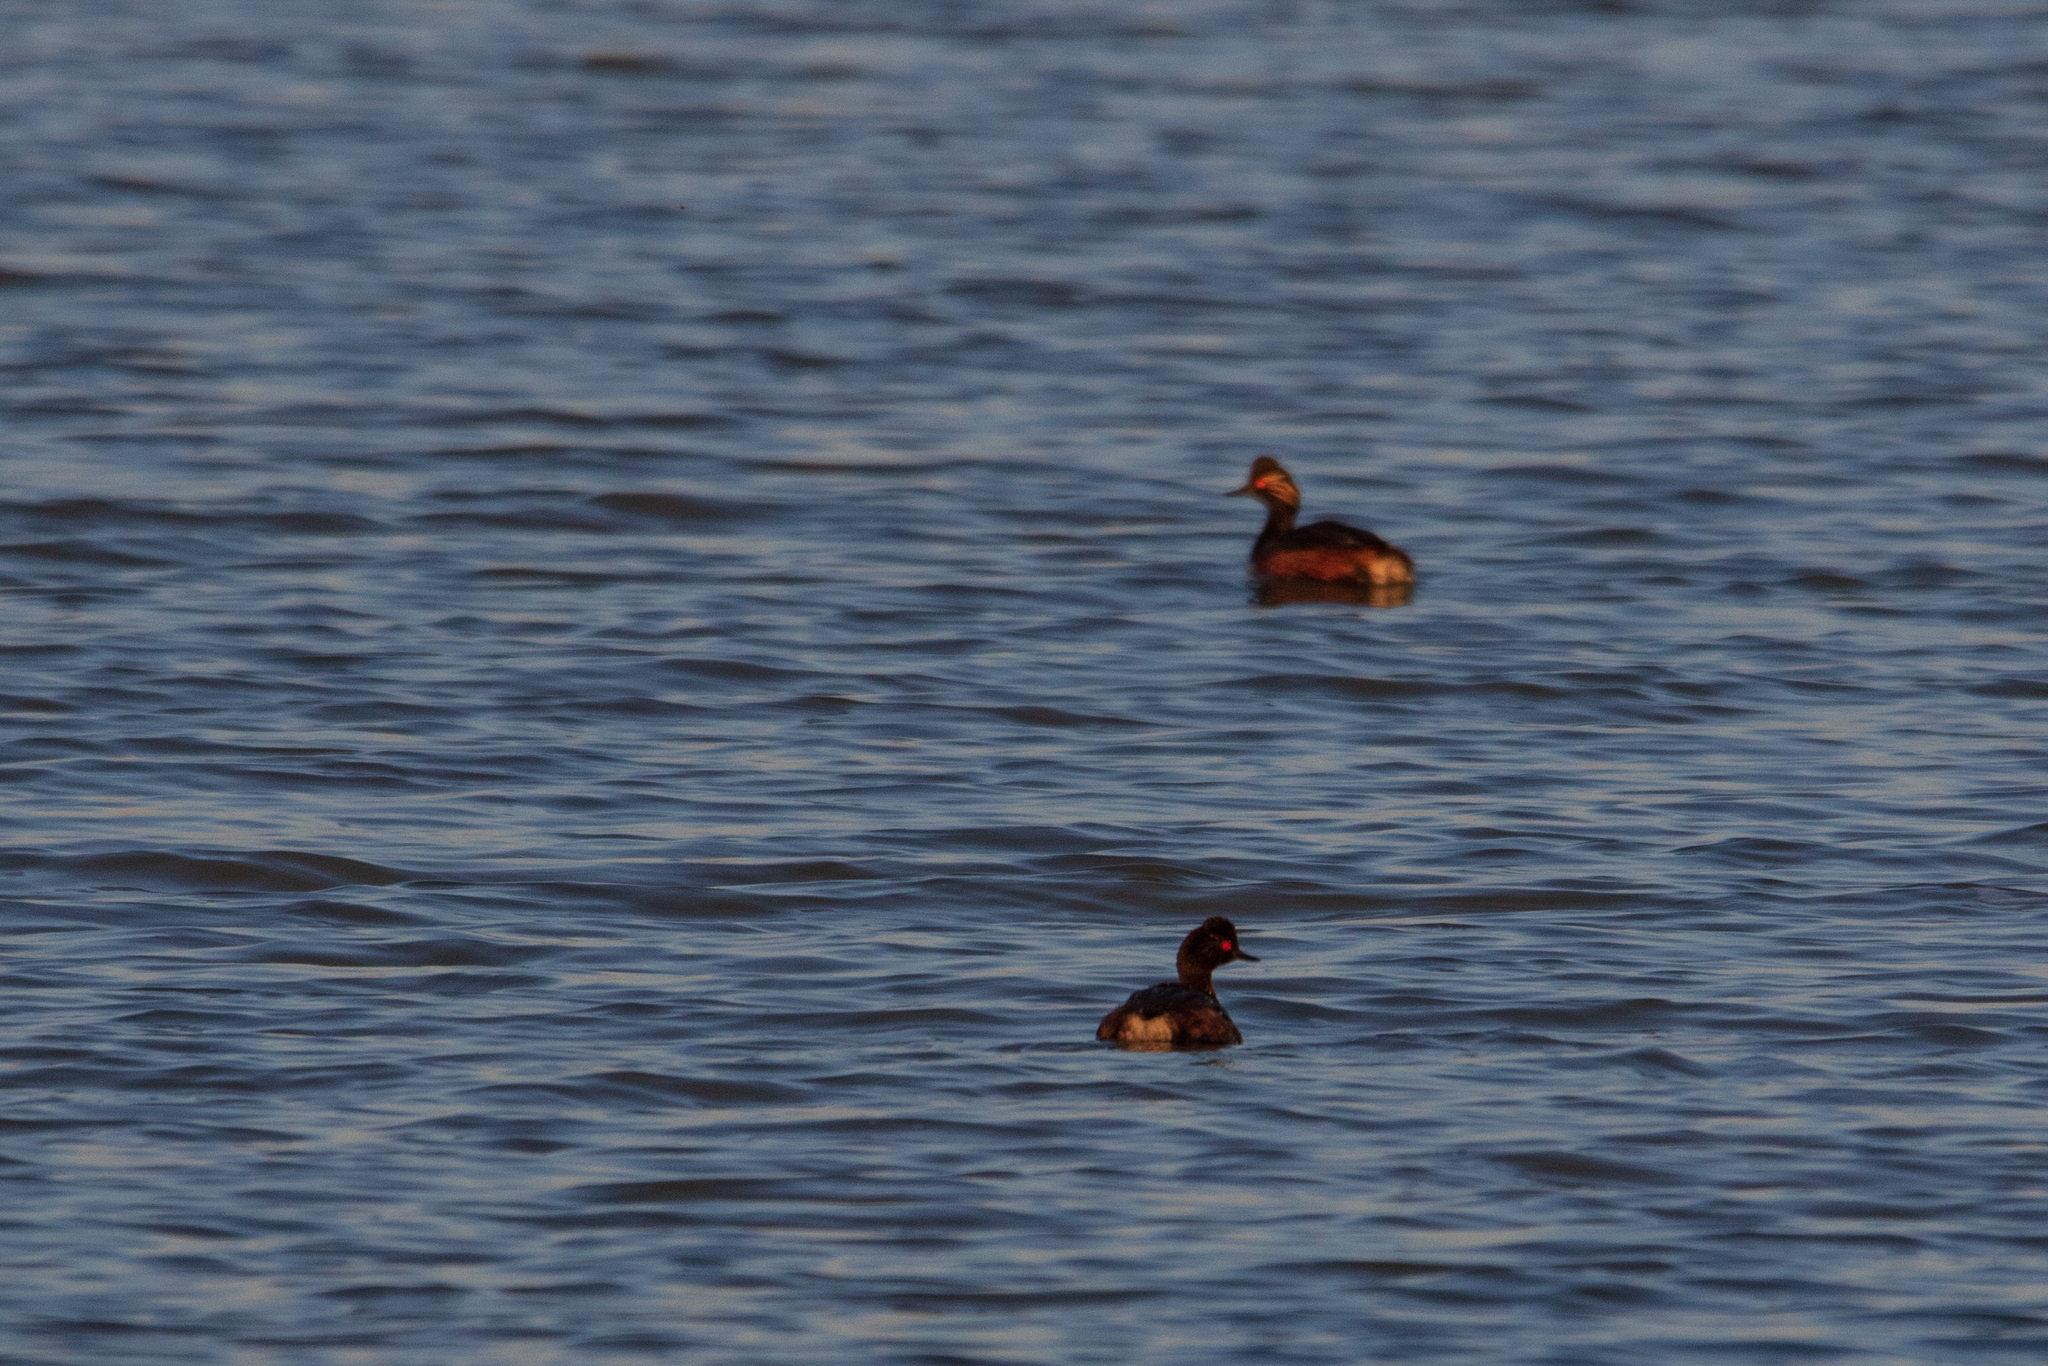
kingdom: Animalia
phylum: Chordata
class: Aves
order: Podicipediformes
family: Podicipedidae
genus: Podiceps
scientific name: Podiceps nigricollis
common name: Black-necked grebe
